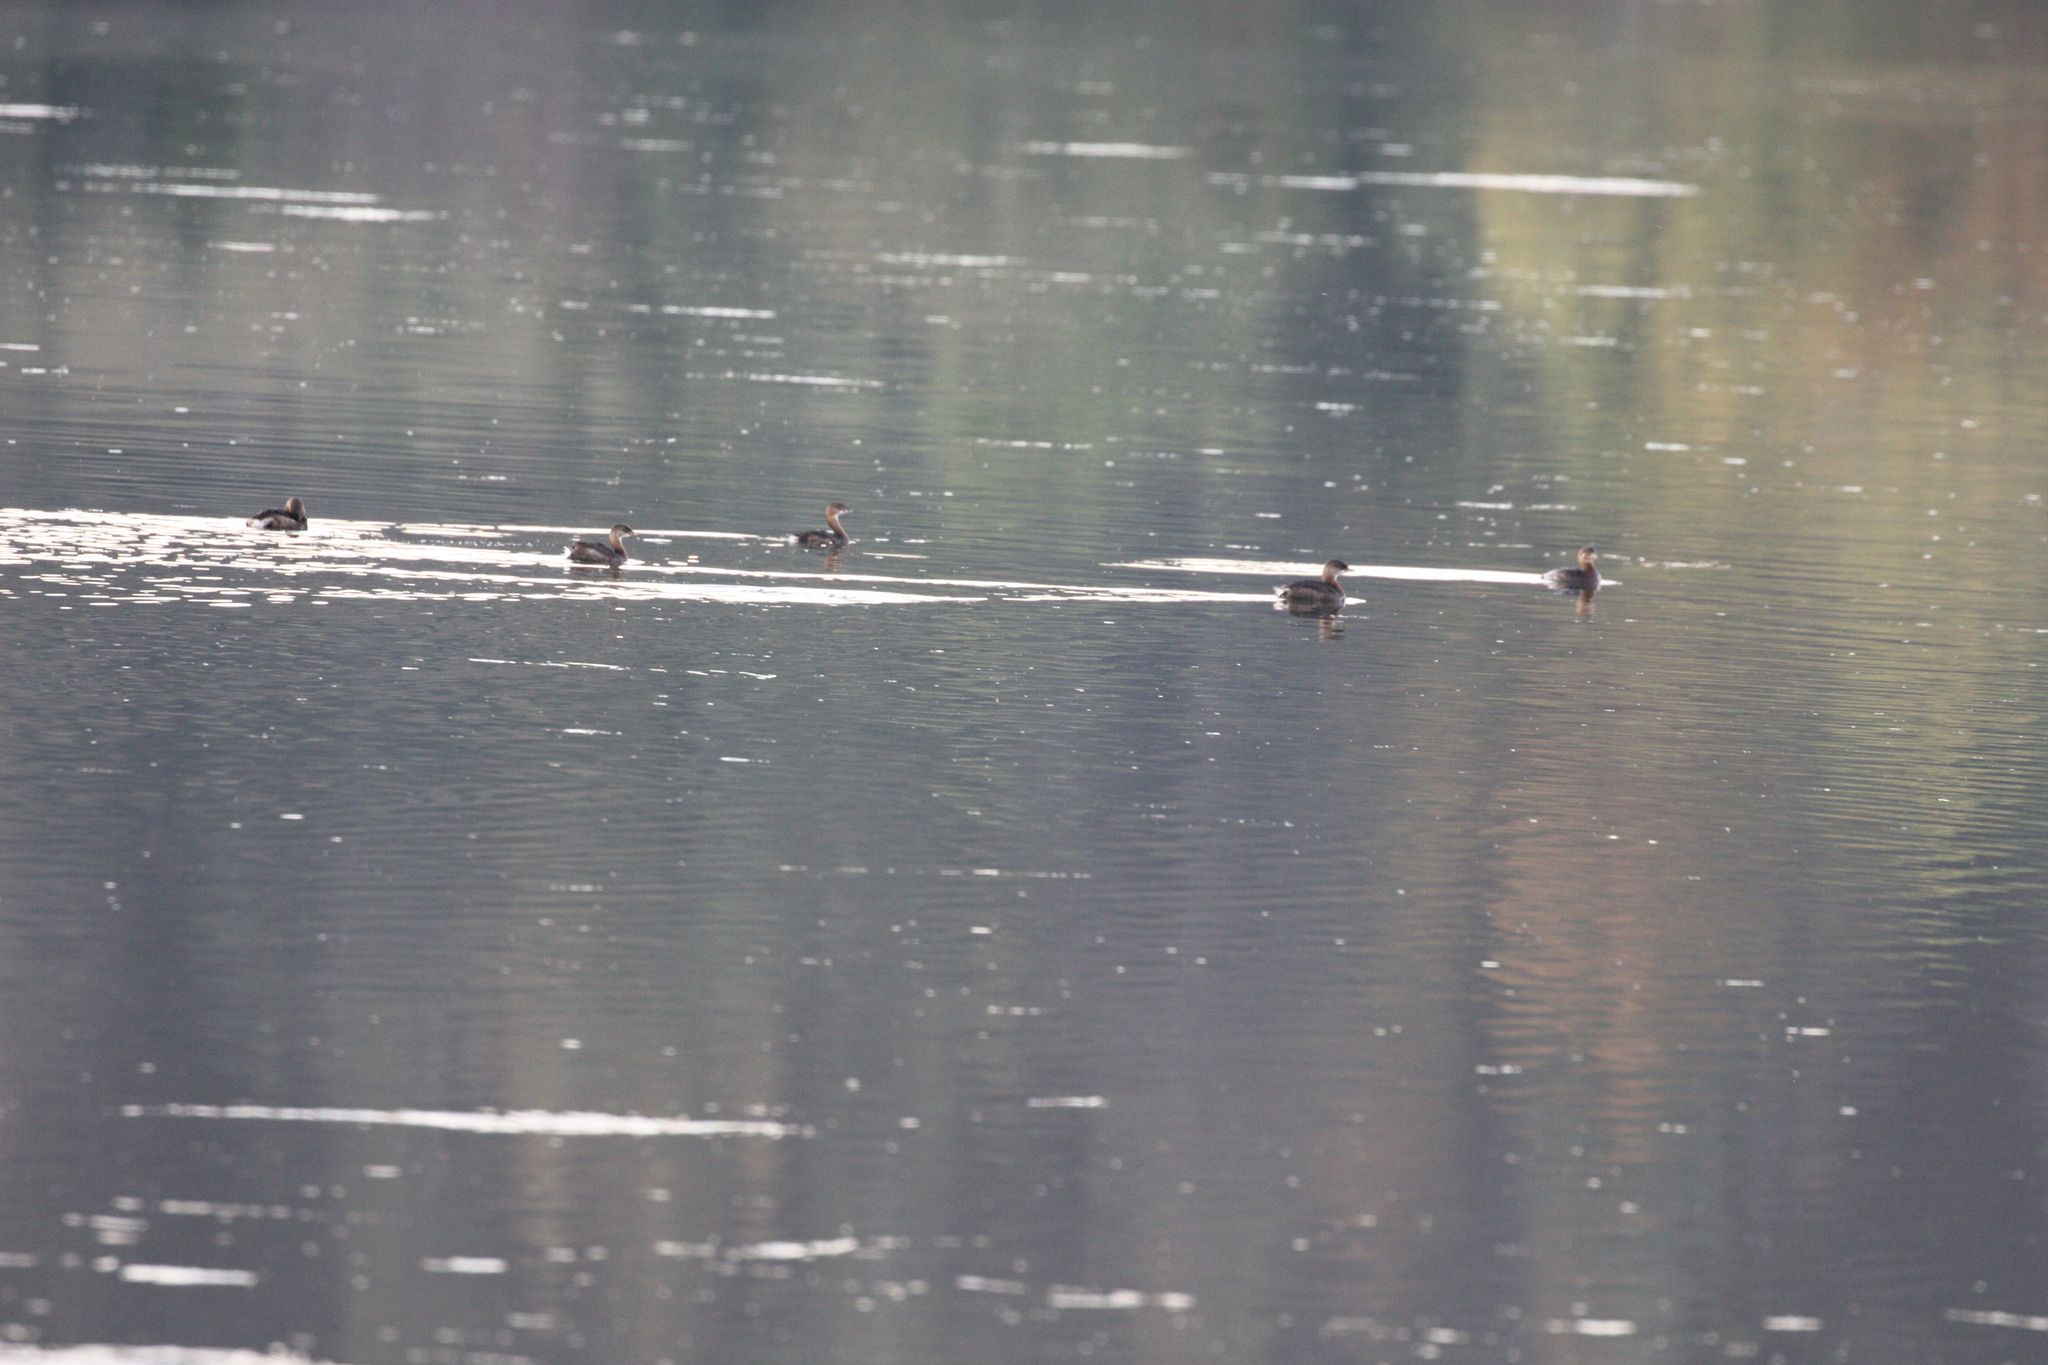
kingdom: Animalia
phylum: Chordata
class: Aves
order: Podicipediformes
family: Podicipedidae
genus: Podilymbus
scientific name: Podilymbus podiceps
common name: Pied-billed grebe
